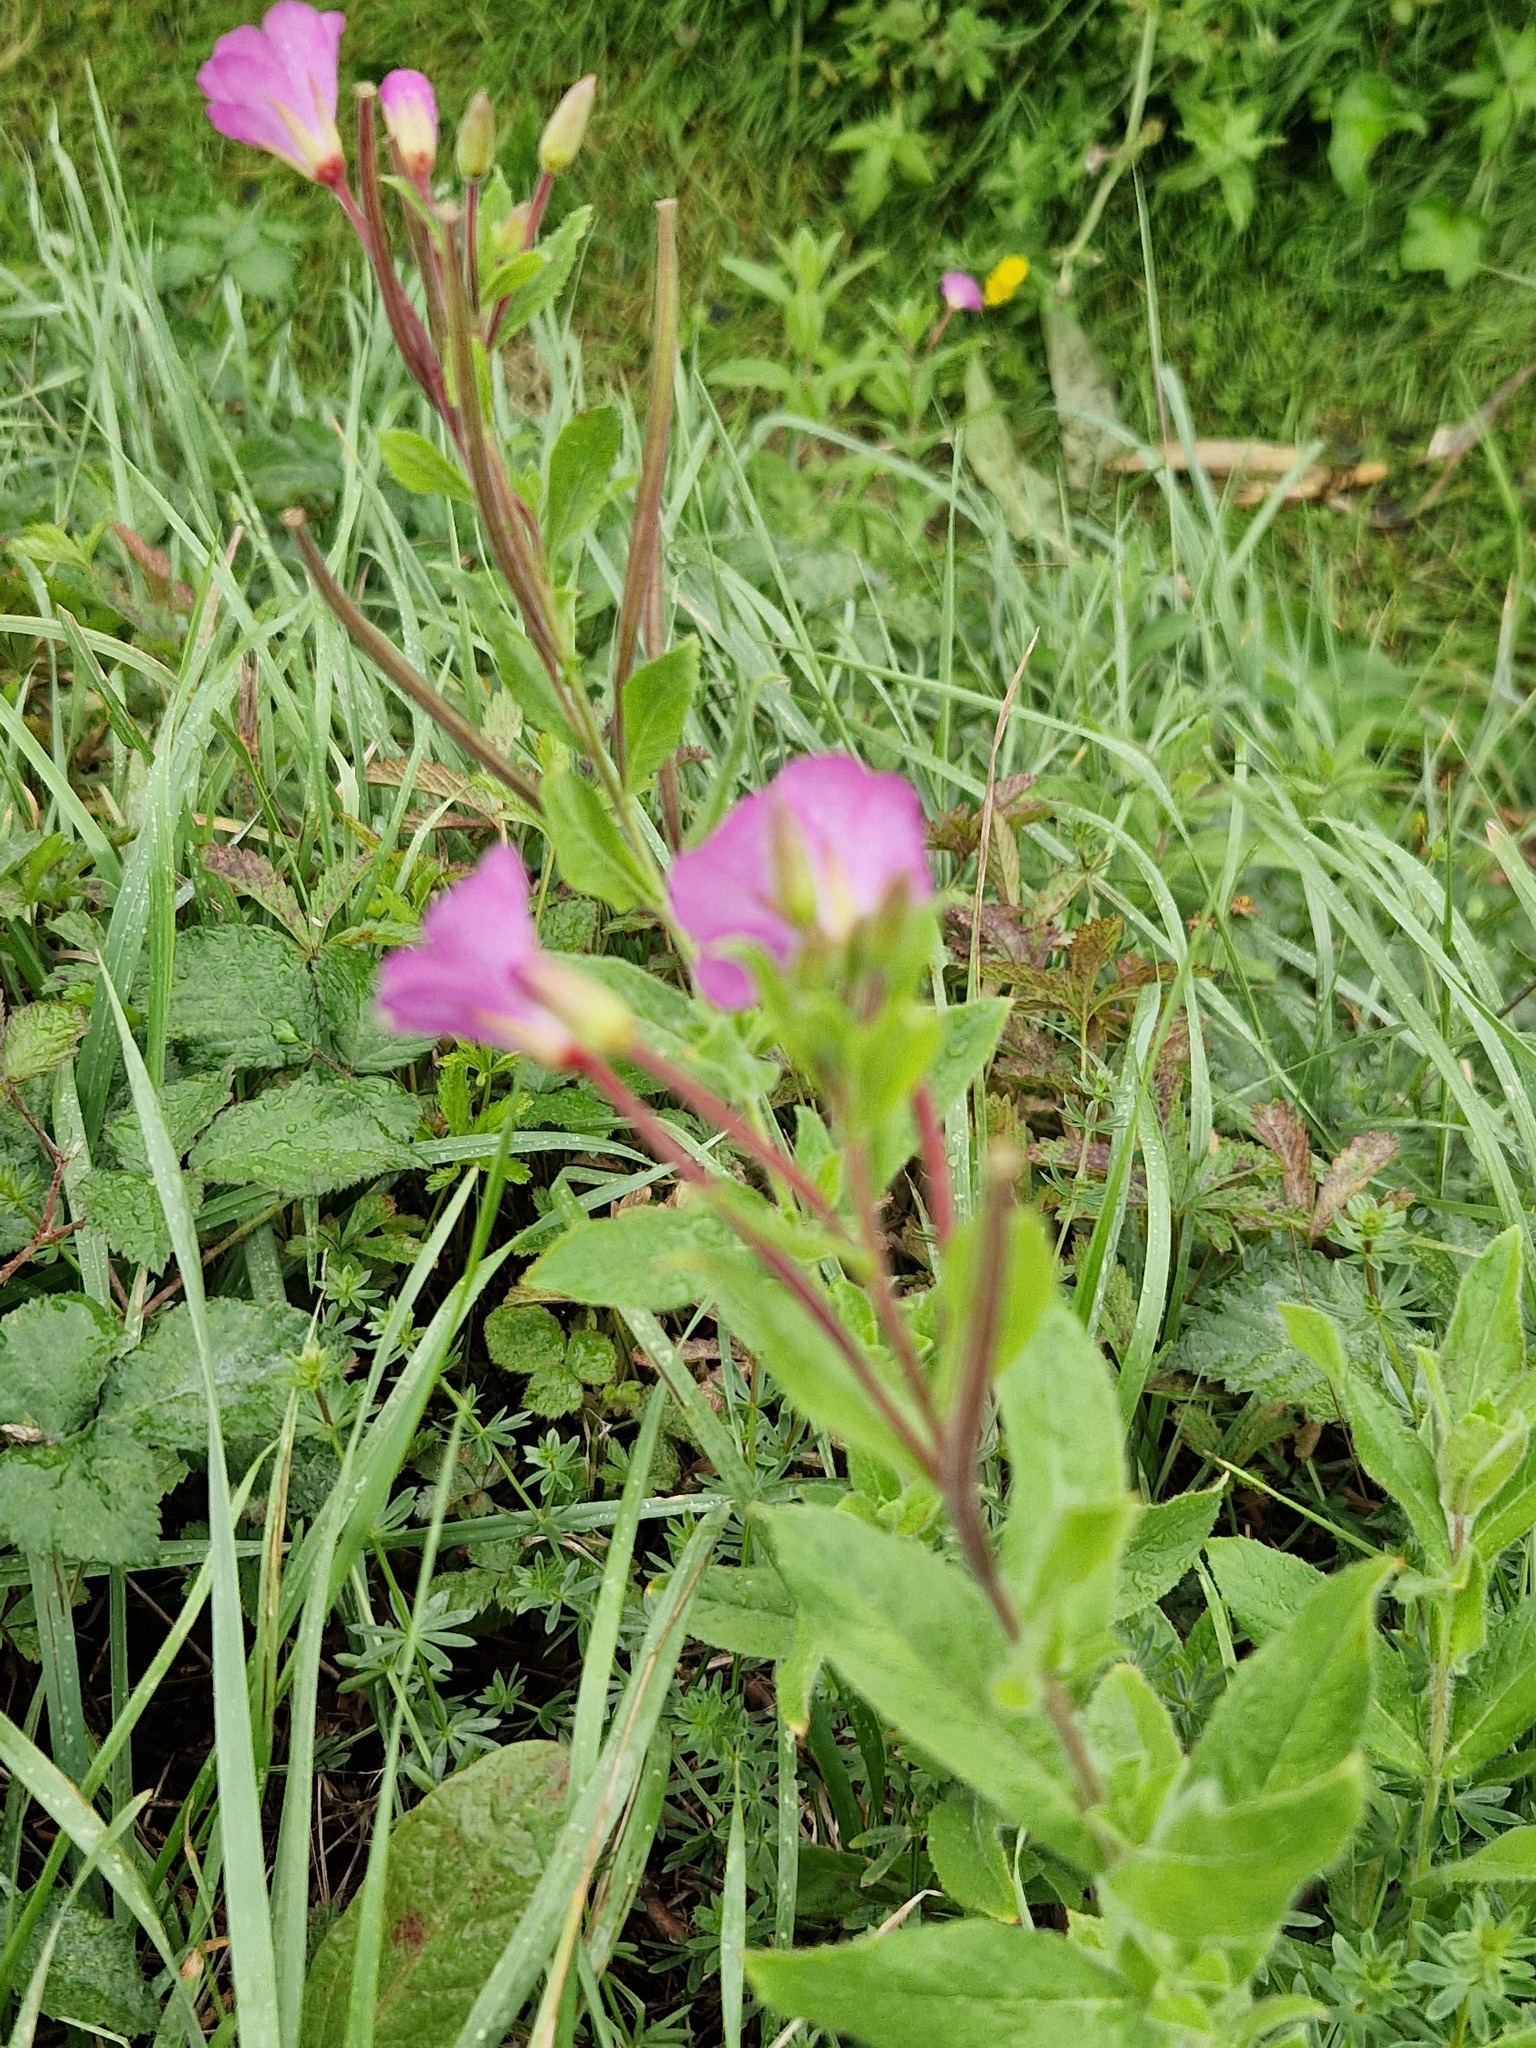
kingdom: Plantae
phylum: Tracheophyta
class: Magnoliopsida
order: Myrtales
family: Onagraceae
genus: Epilobium
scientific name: Epilobium hirsutum
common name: Great willowherb
